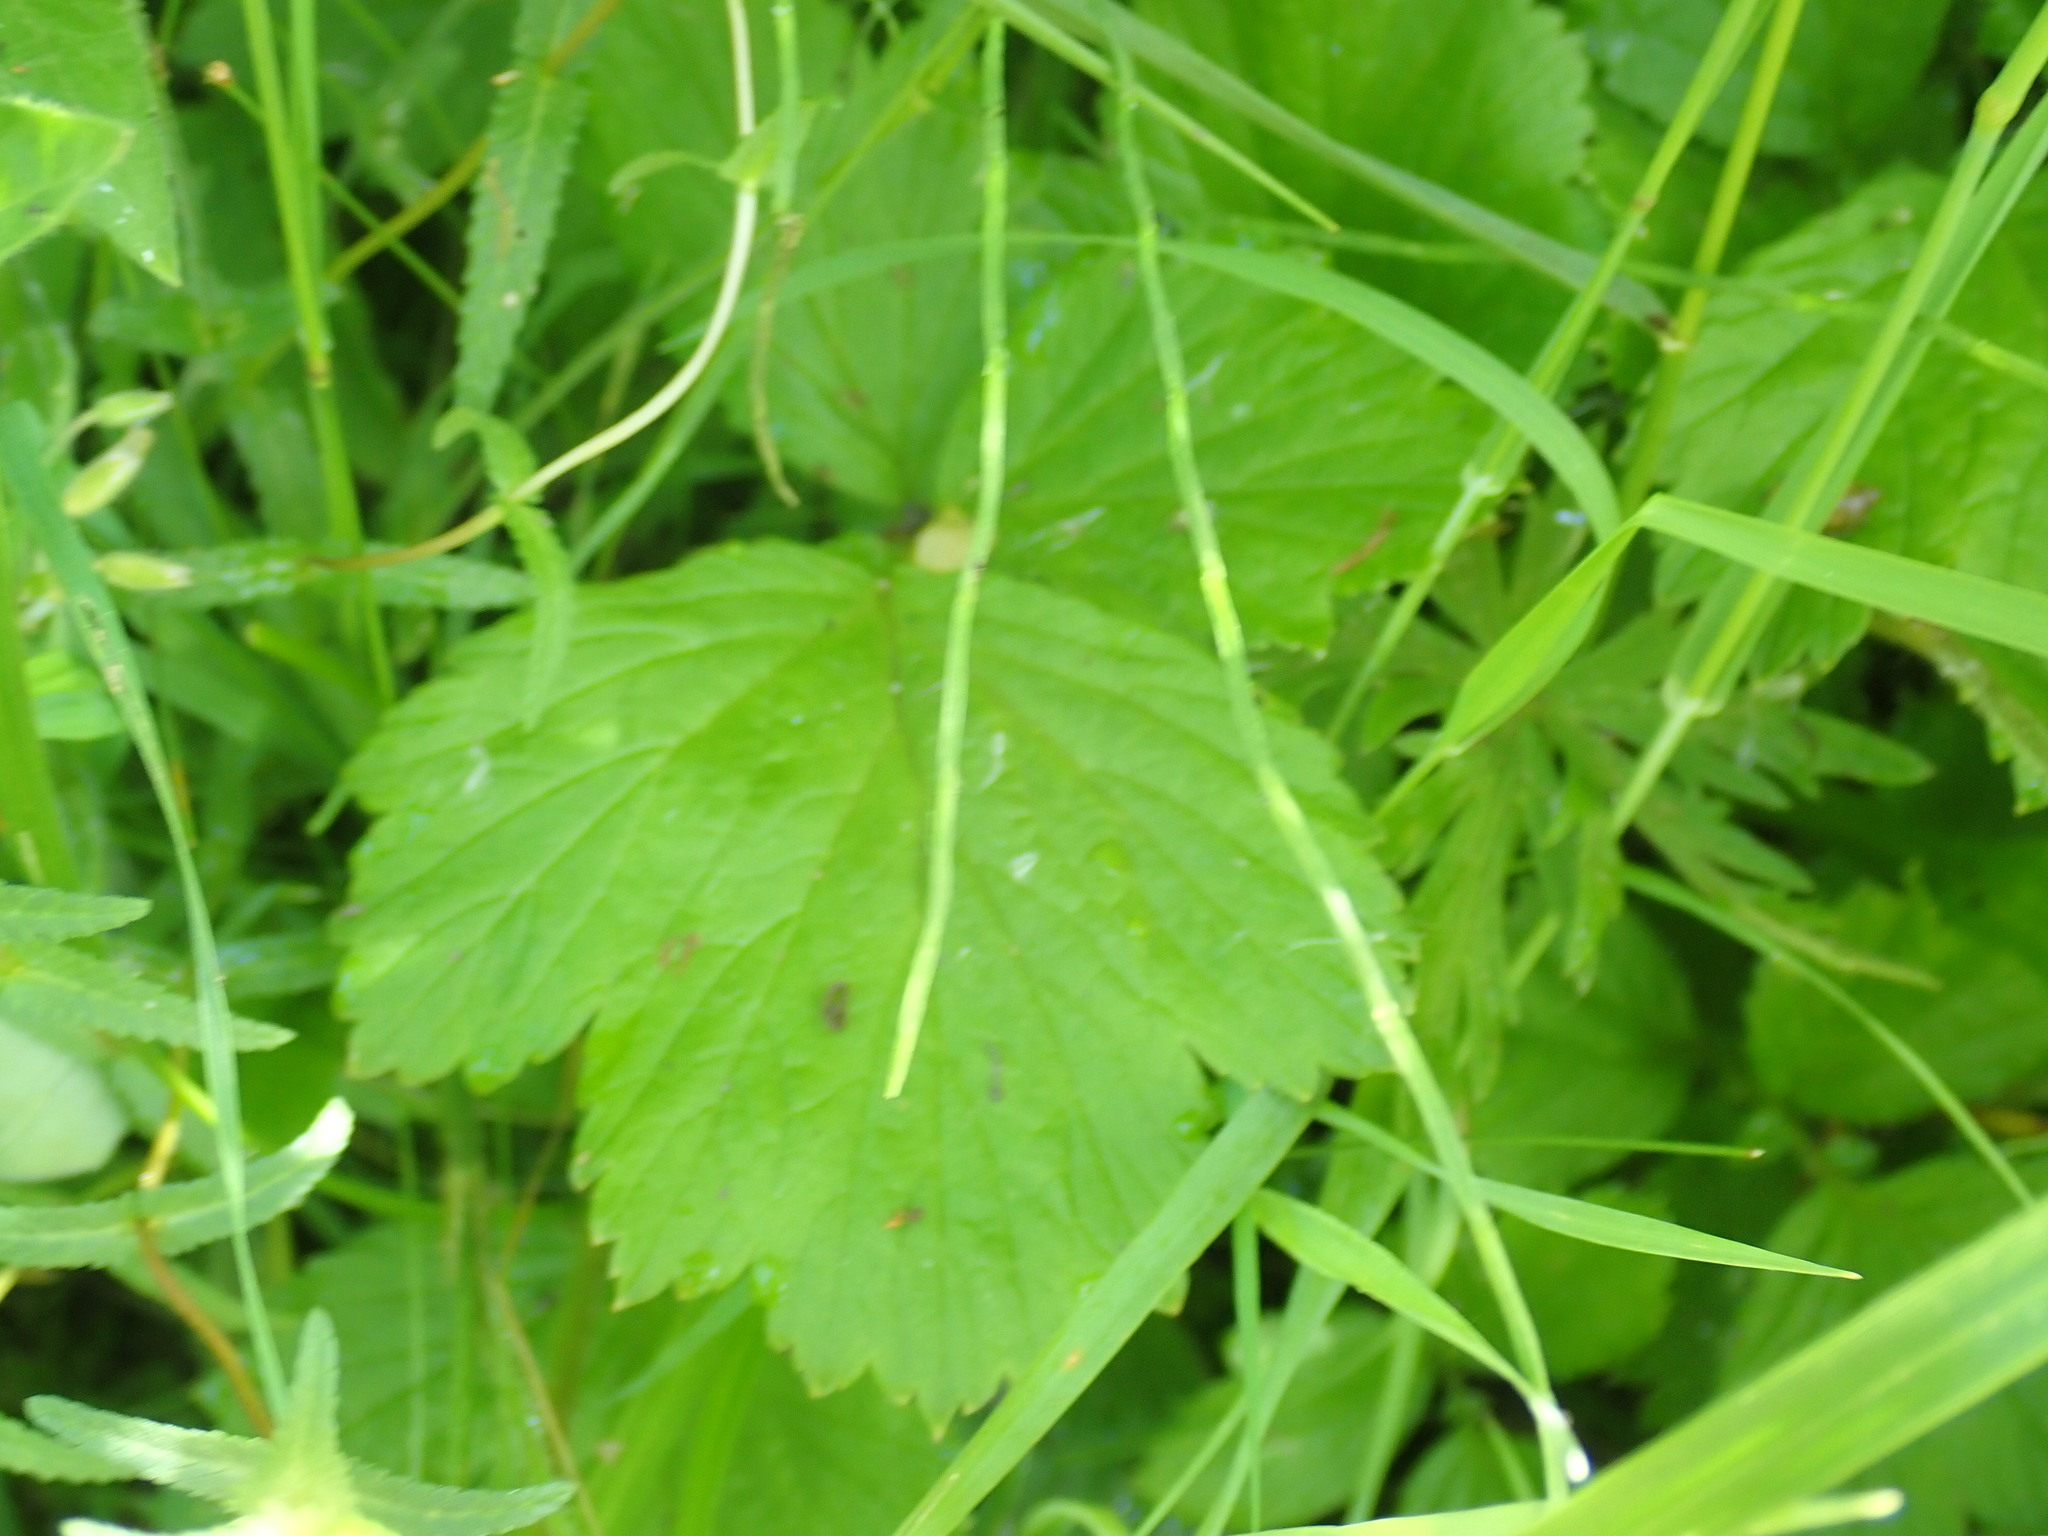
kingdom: Plantae
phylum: Tracheophyta
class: Magnoliopsida
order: Rosales
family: Rosaceae
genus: Geum
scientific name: Geum rivale
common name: Water avens
